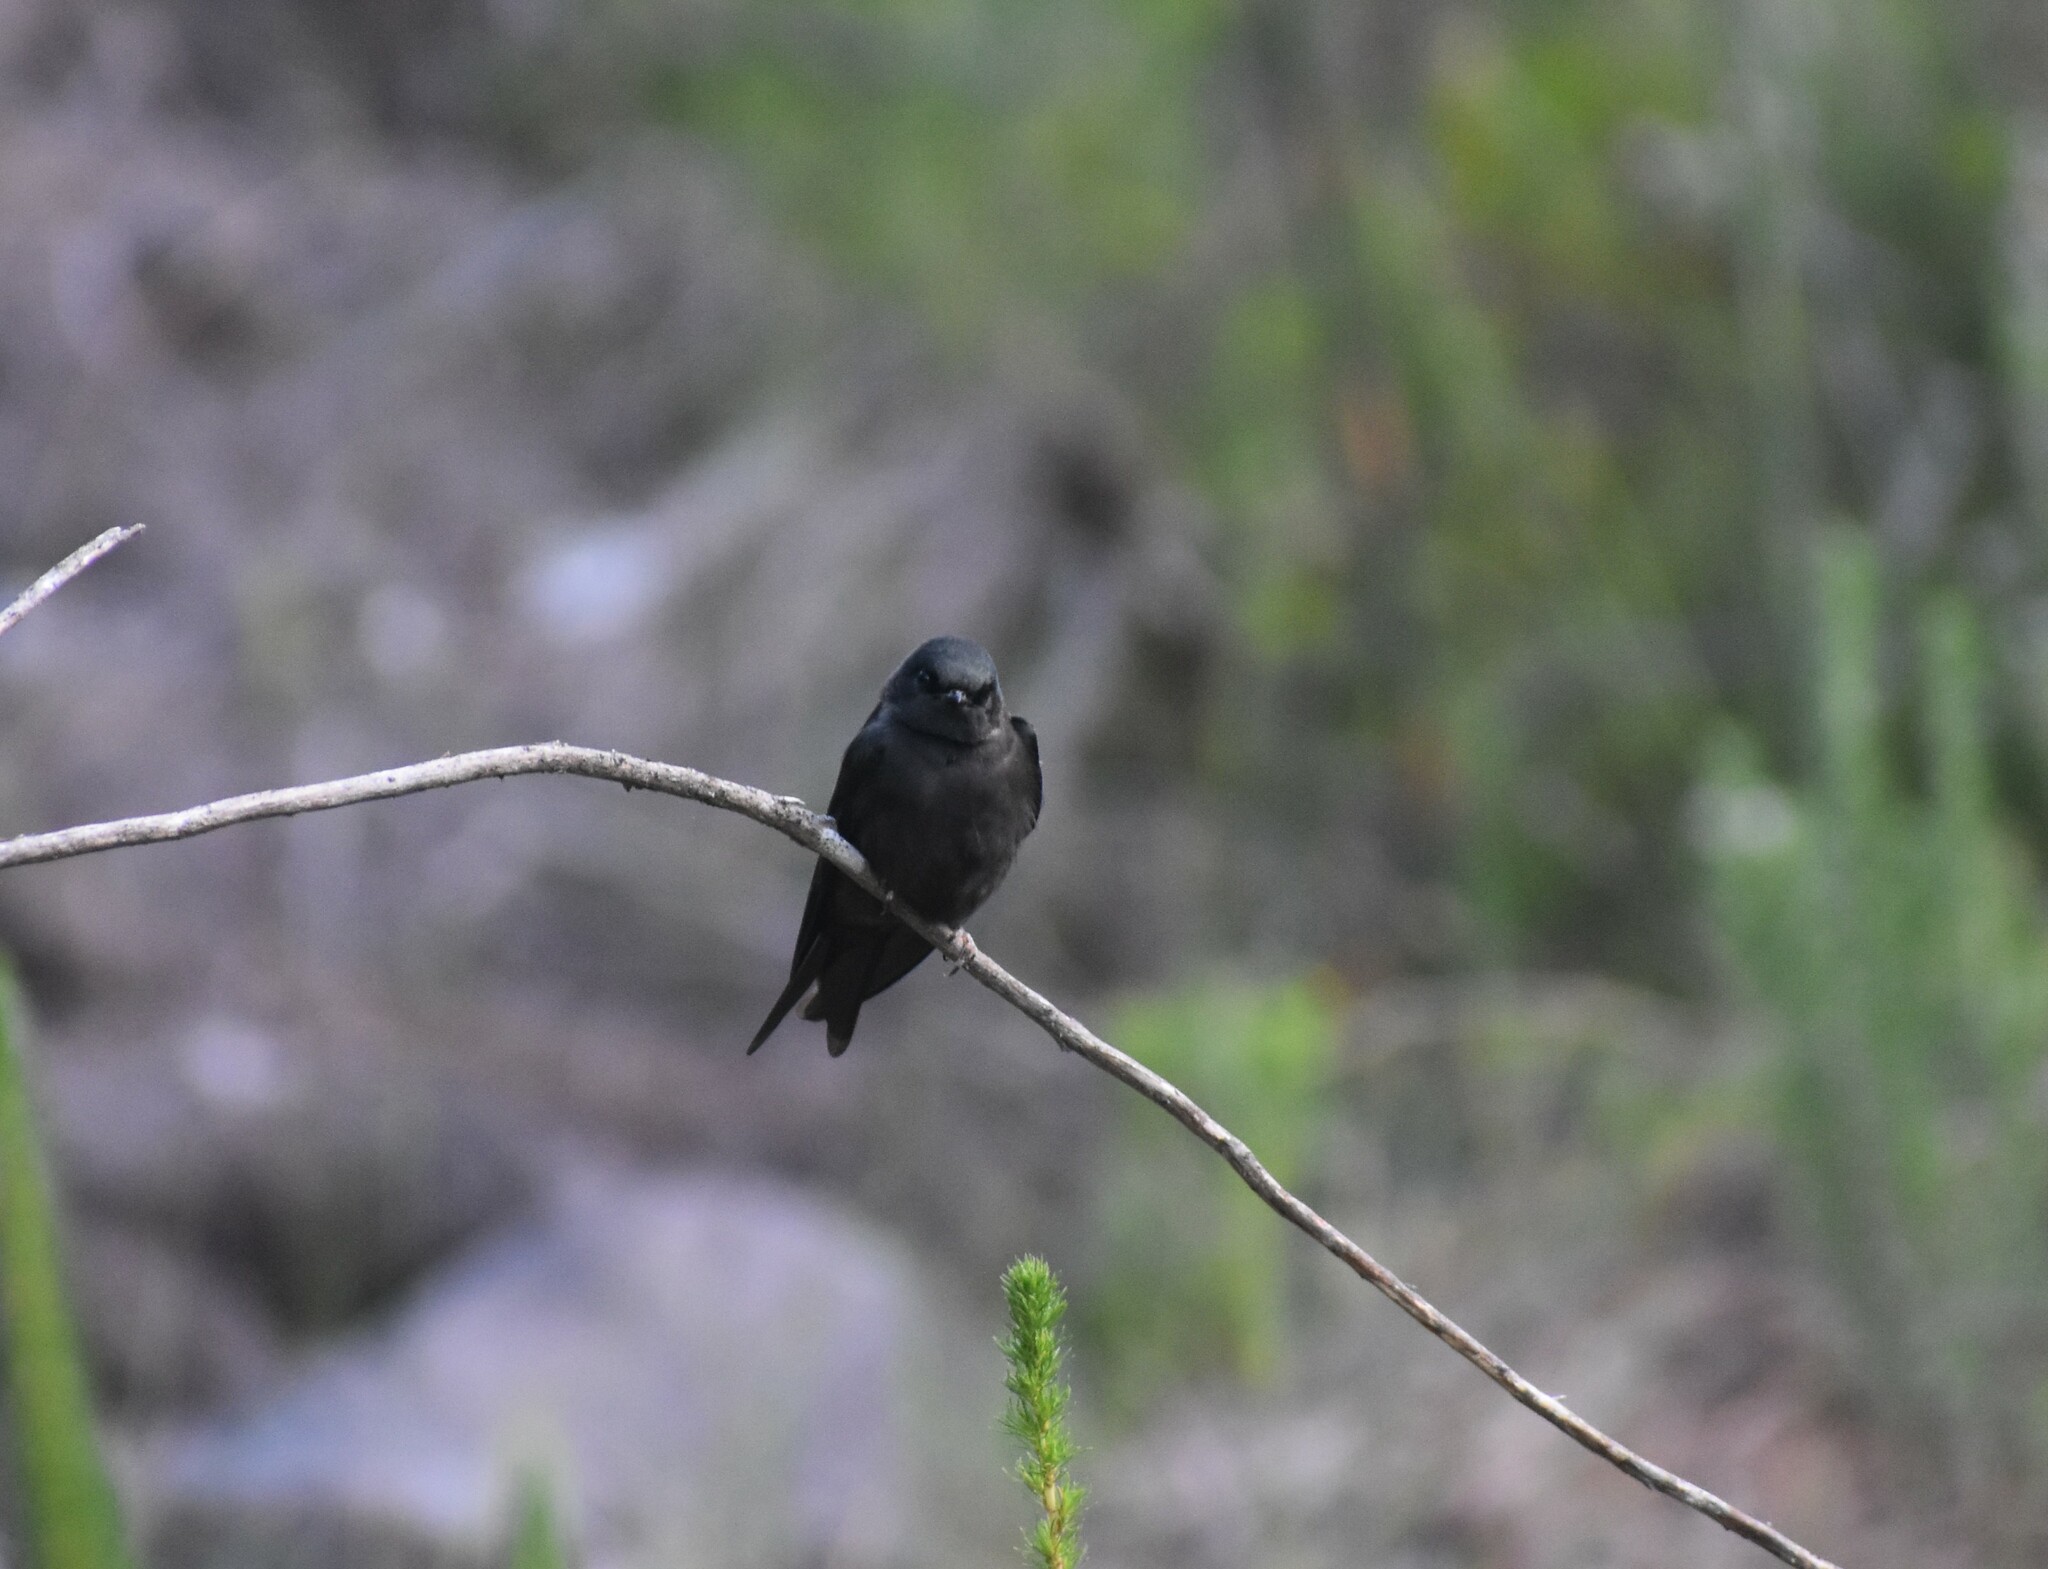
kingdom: Animalia
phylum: Chordata
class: Aves
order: Passeriformes
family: Hirundinidae
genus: Psalidoprocne
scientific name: Psalidoprocne pristoptera
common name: Black saw-wing
